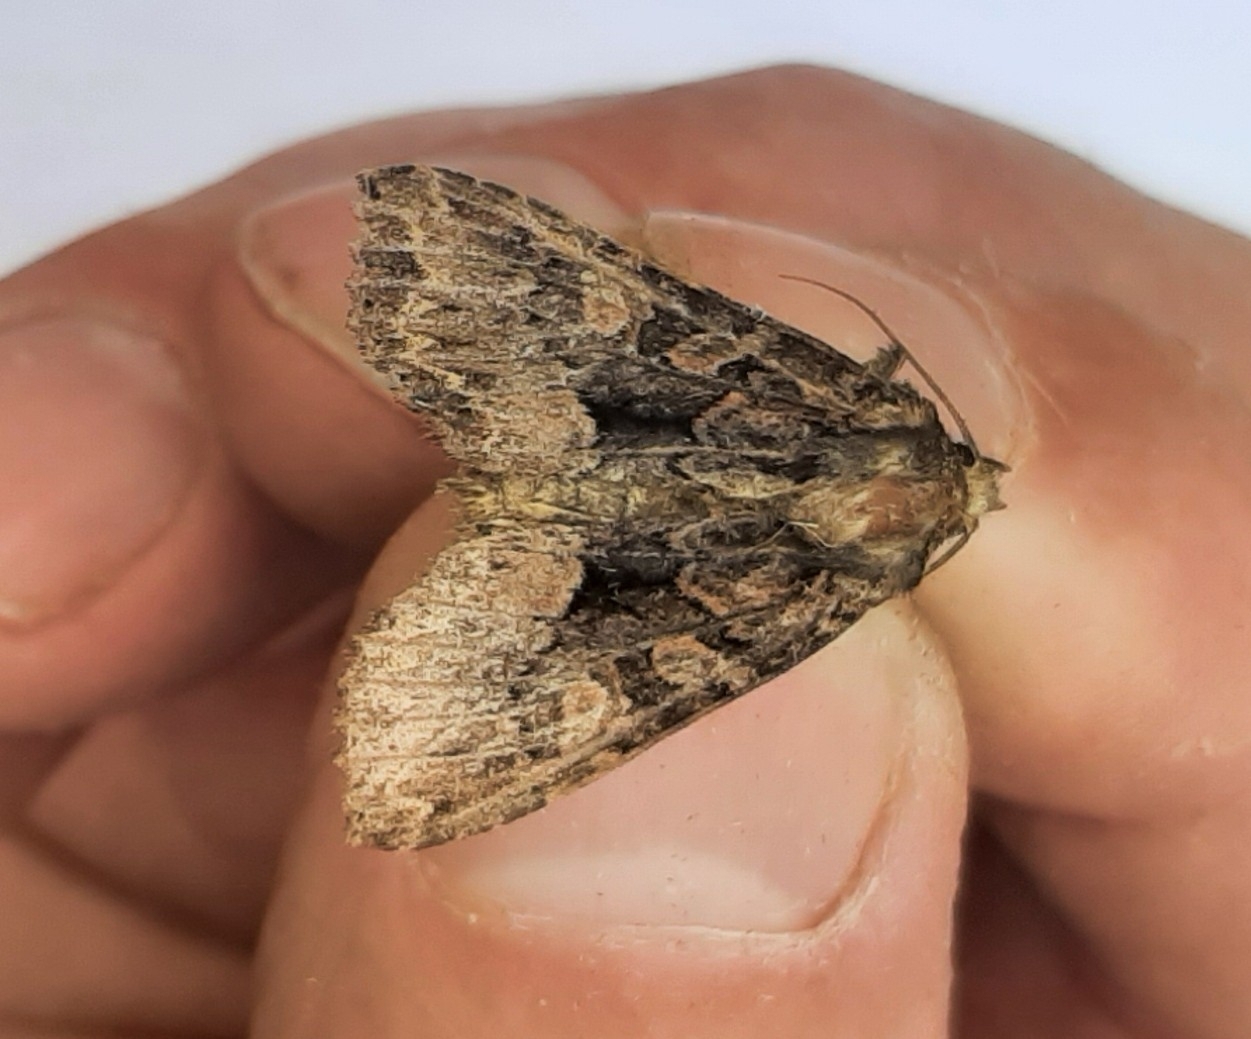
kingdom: Animalia
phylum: Arthropoda
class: Insecta
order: Lepidoptera
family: Noctuidae
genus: Mniotype
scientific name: Mniotype satura
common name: Beautiful arches
